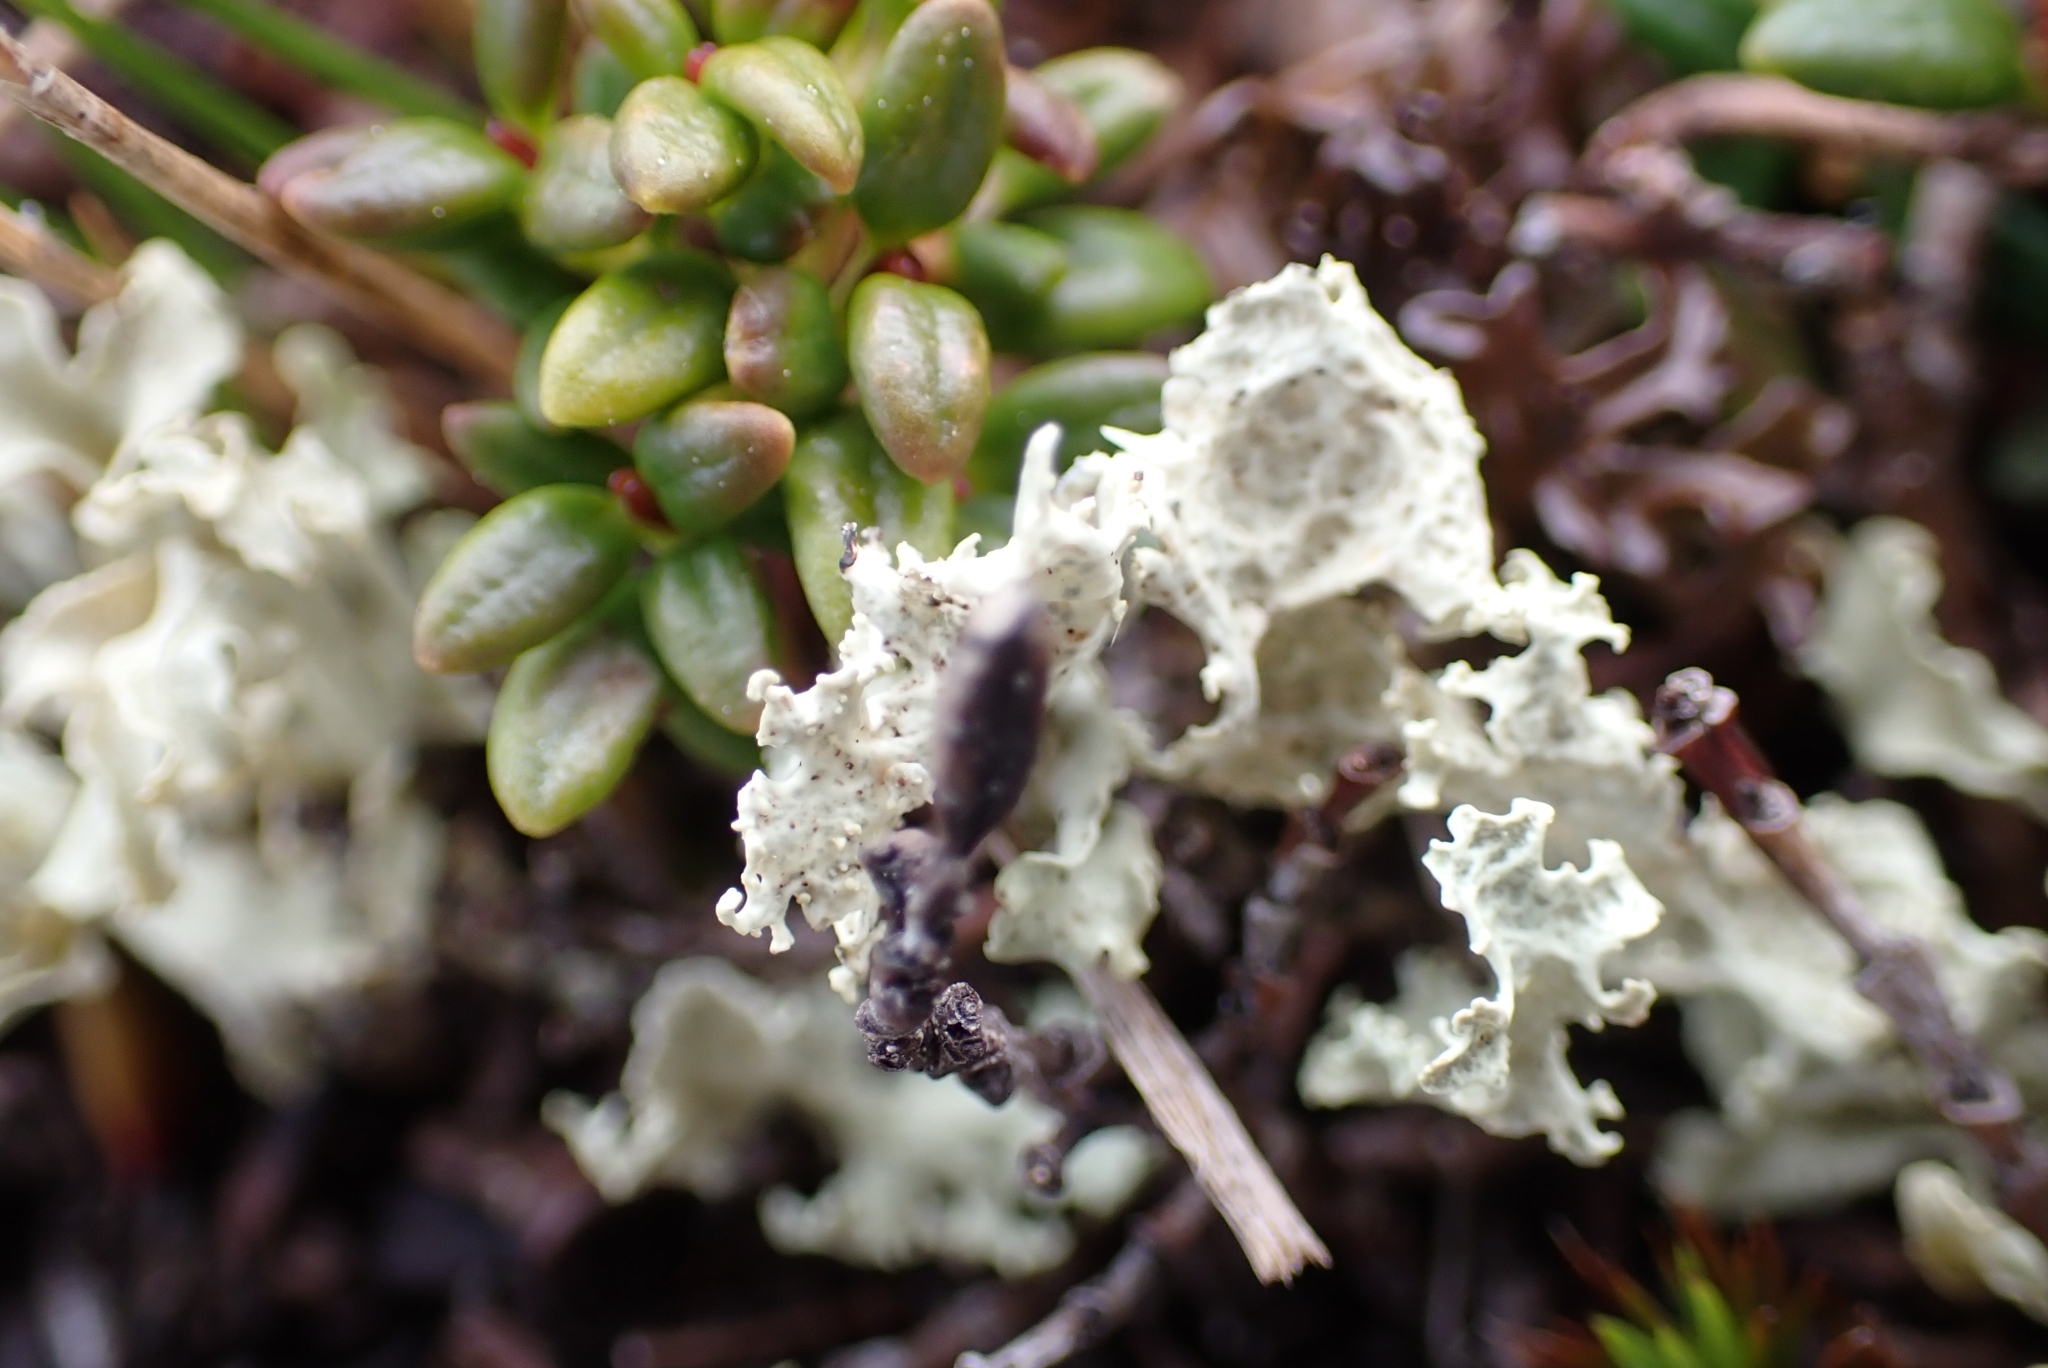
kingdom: Fungi
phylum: Ascomycota
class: Lecanoromycetes
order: Lecanorales
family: Parmeliaceae
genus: Nephromopsis
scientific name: Nephromopsis cucullata
